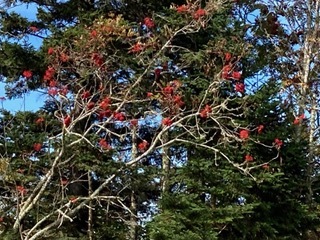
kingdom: Plantae
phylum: Tracheophyta
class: Magnoliopsida
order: Rosales
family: Rosaceae
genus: Sorbus
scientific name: Sorbus americana
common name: American mountain-ash
